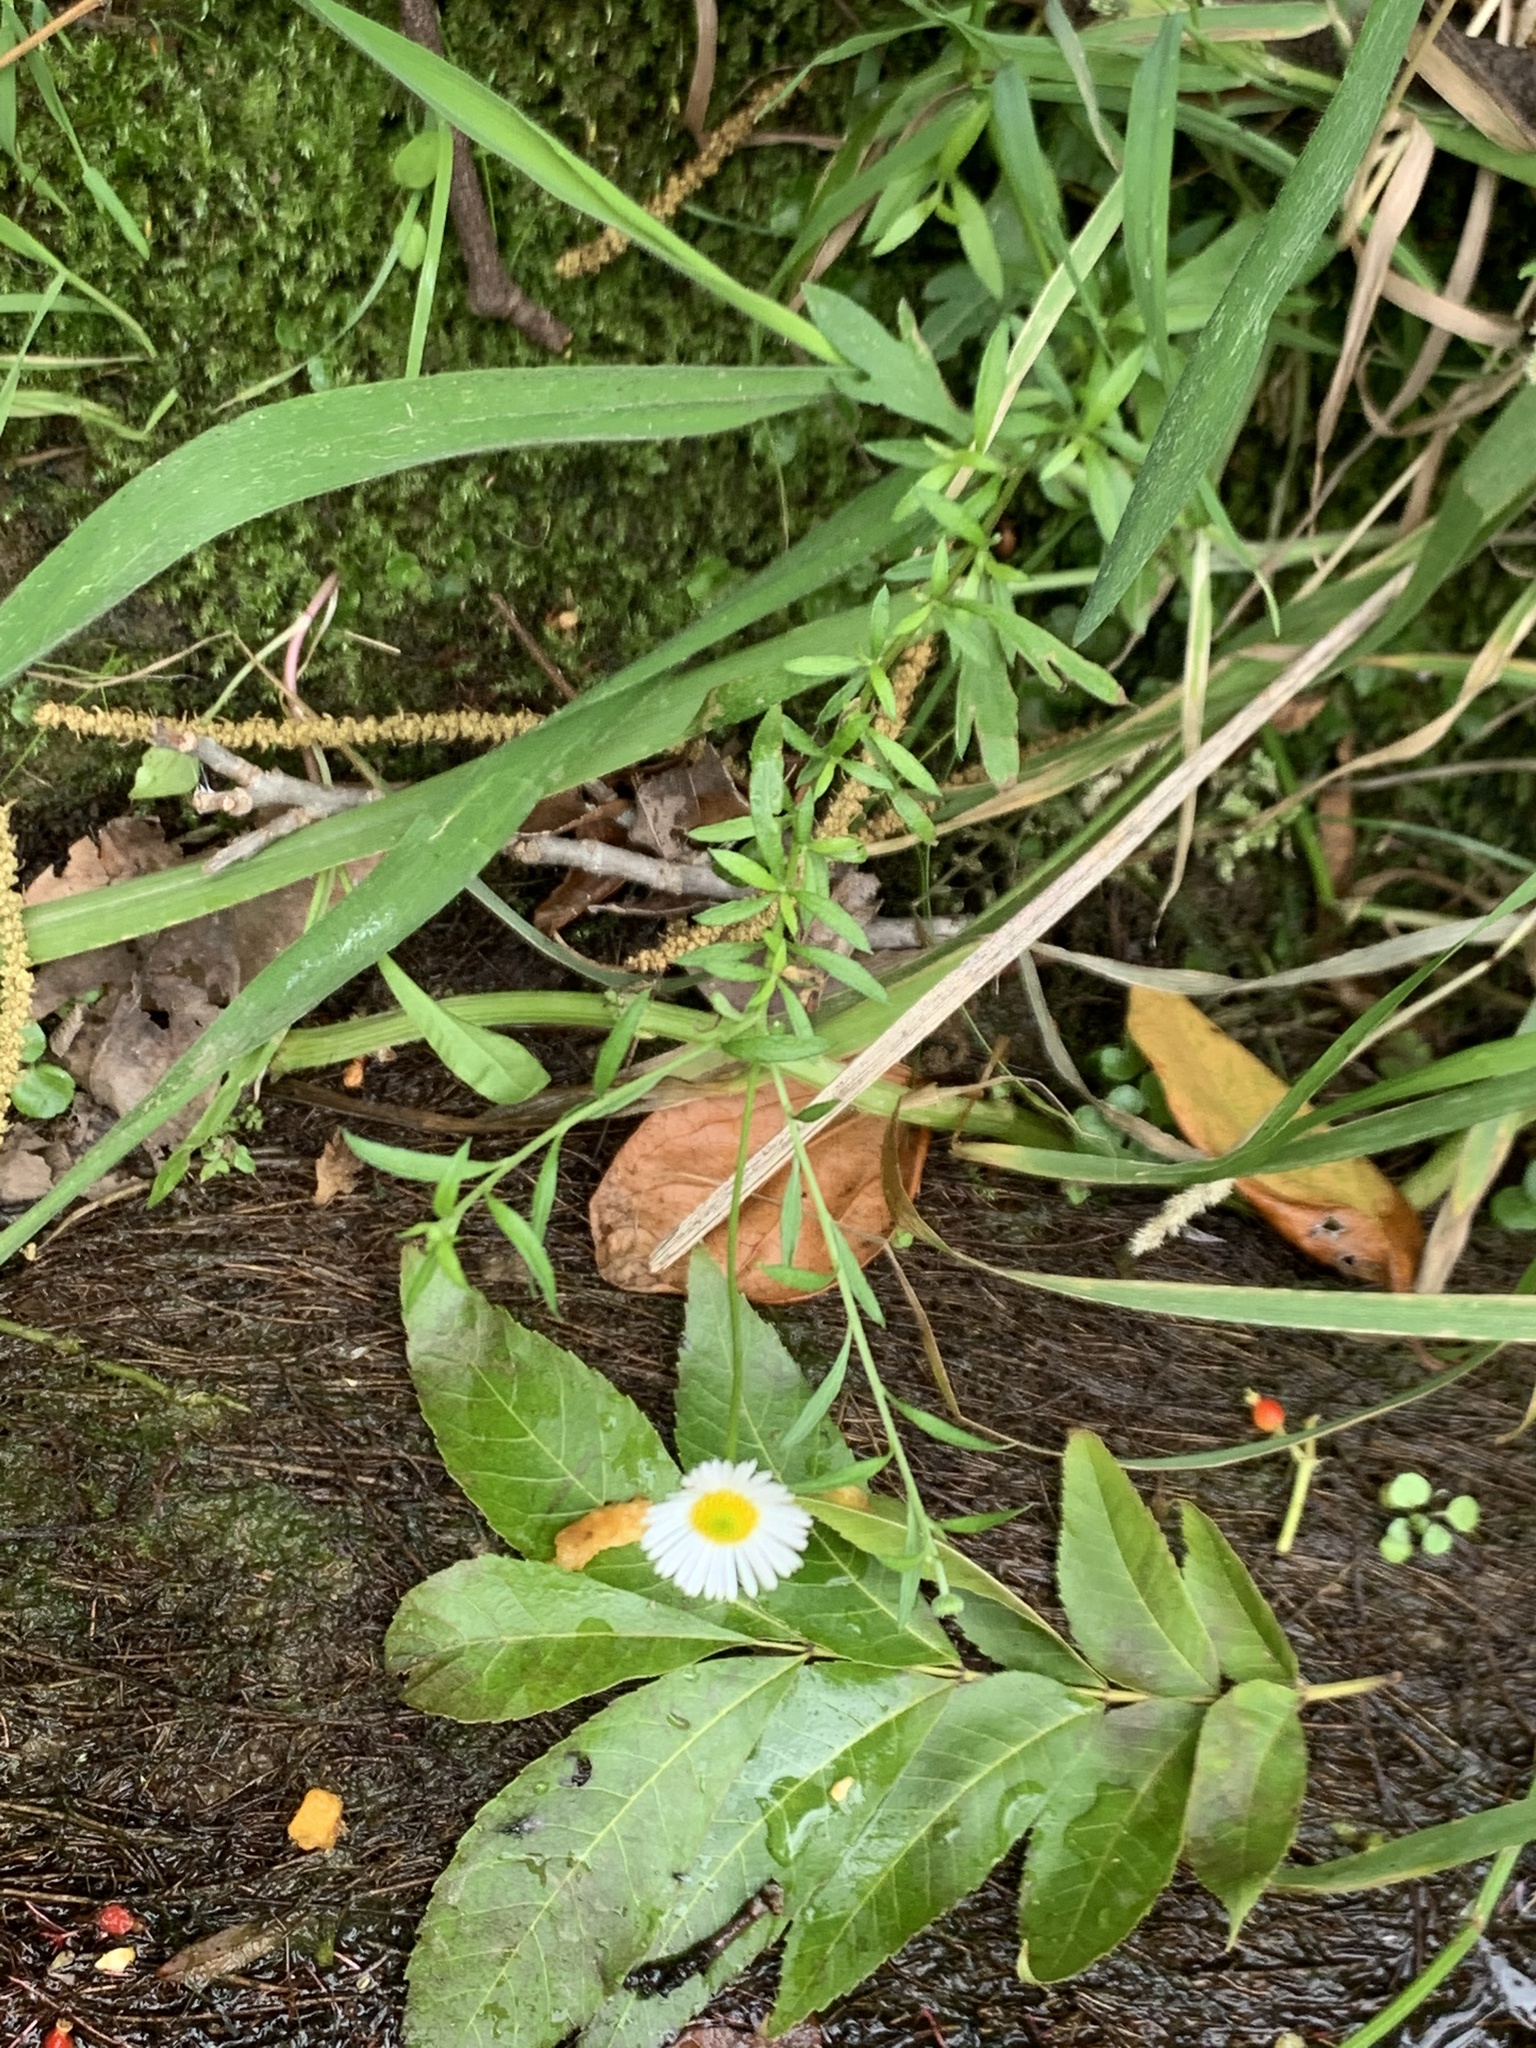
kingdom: Plantae
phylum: Tracheophyta
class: Magnoliopsida
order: Asterales
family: Asteraceae
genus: Erigeron
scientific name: Erigeron karvinskianus
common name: Mexican fleabane
